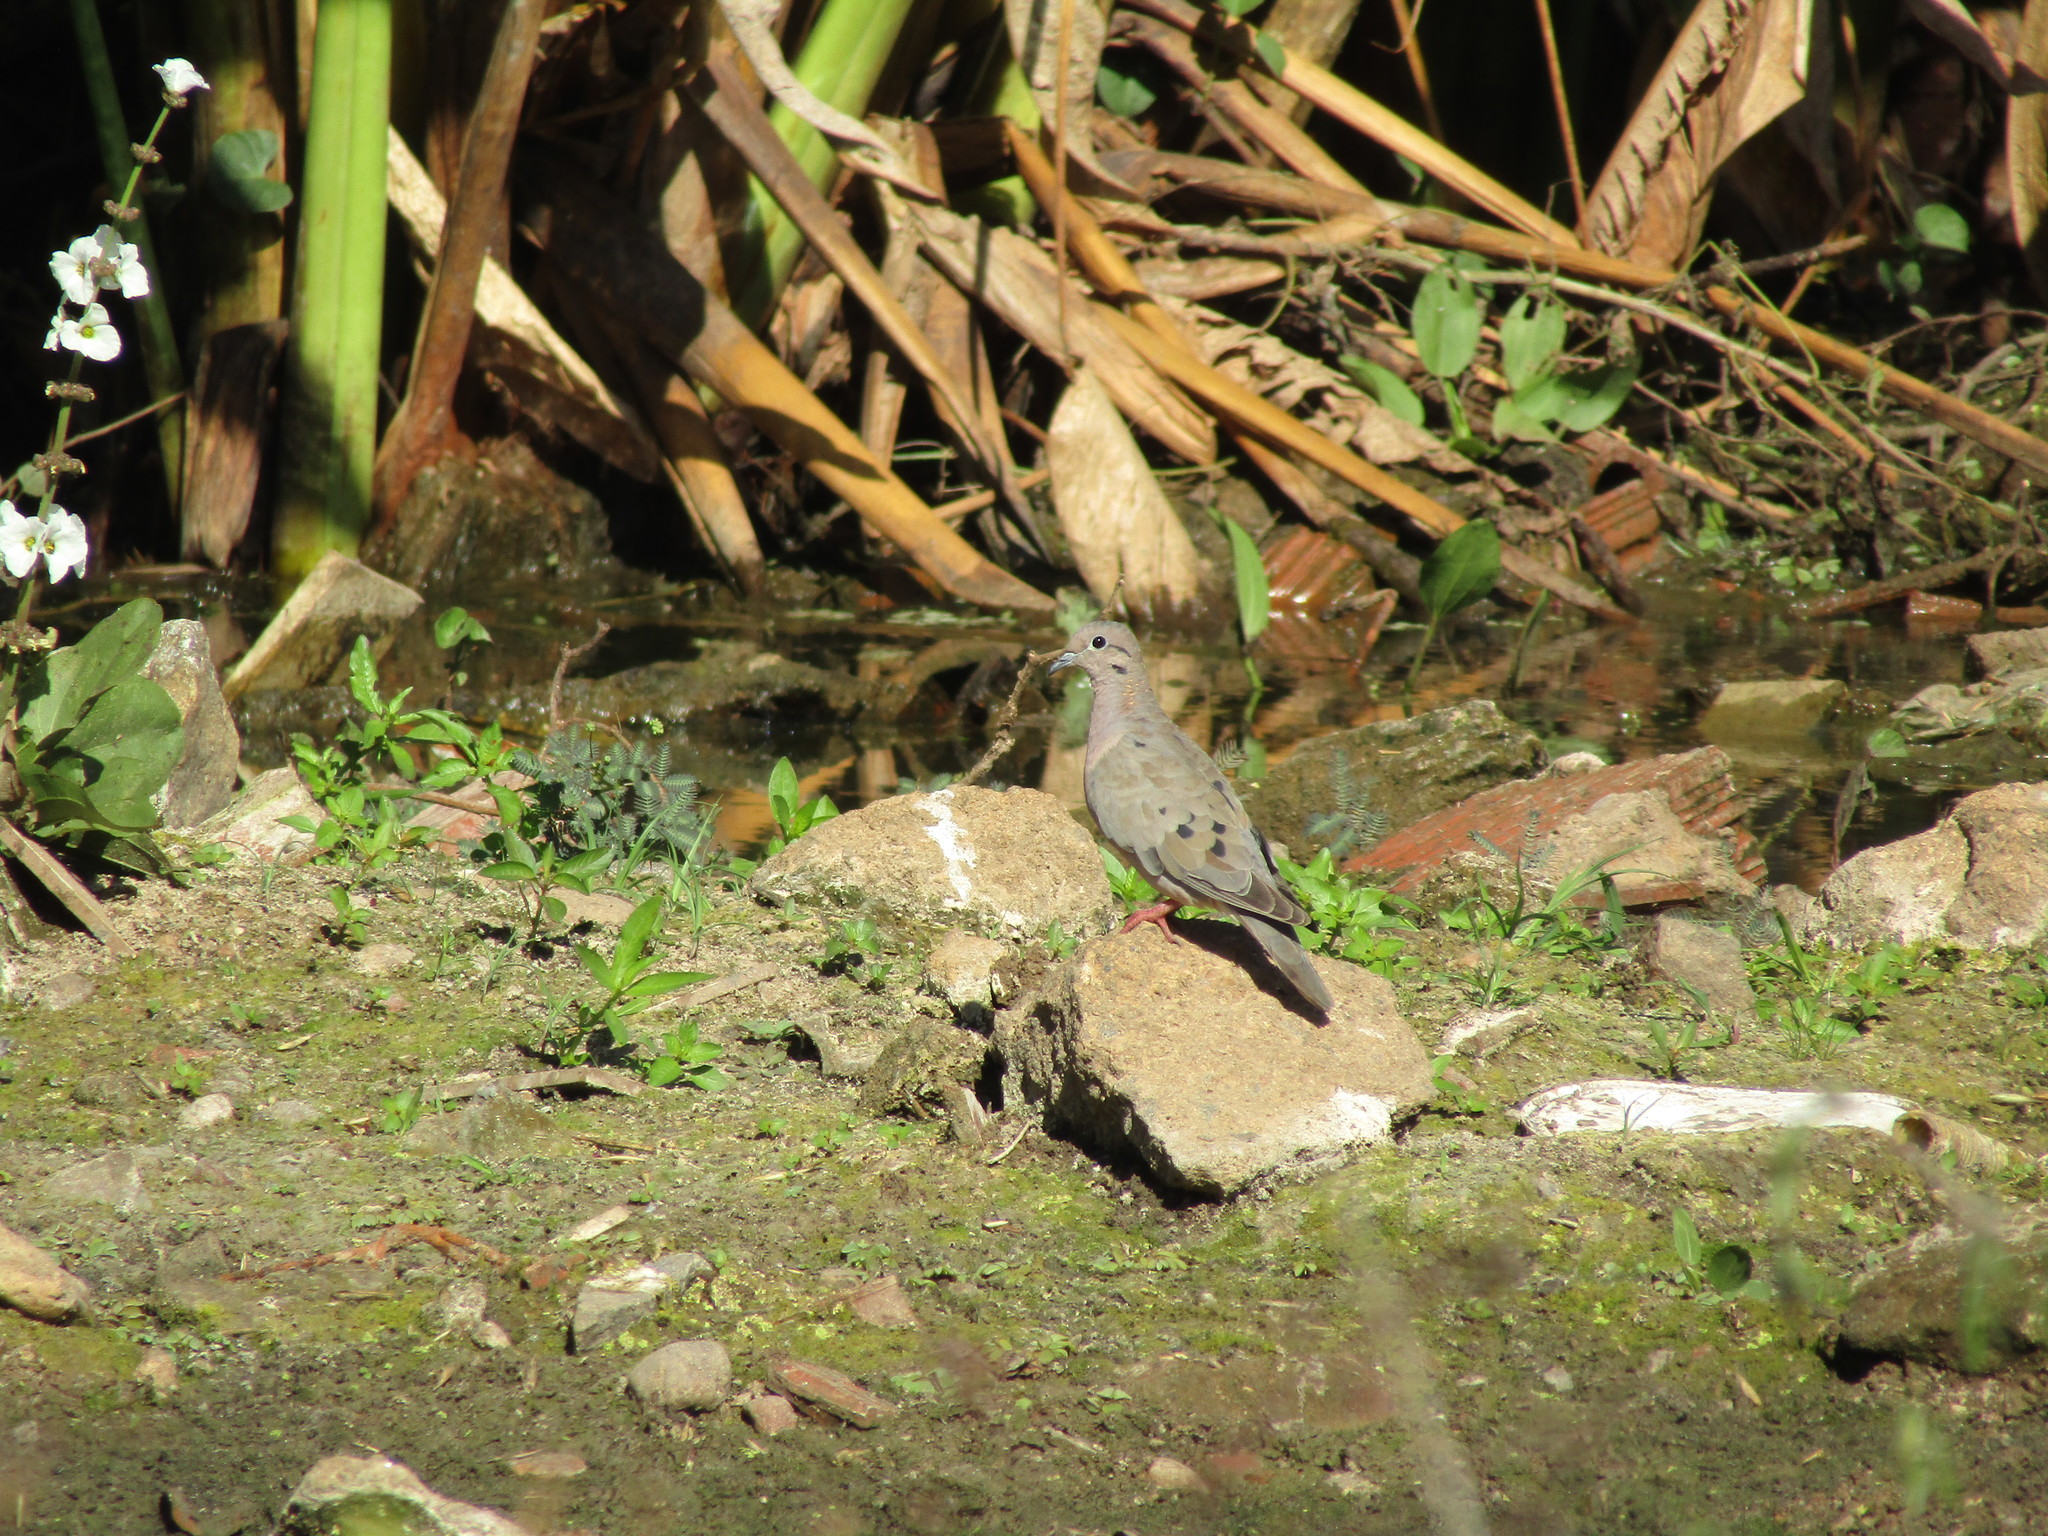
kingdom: Animalia
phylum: Chordata
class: Aves
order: Columbiformes
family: Columbidae
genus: Zenaida
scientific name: Zenaida auriculata
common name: Eared dove
